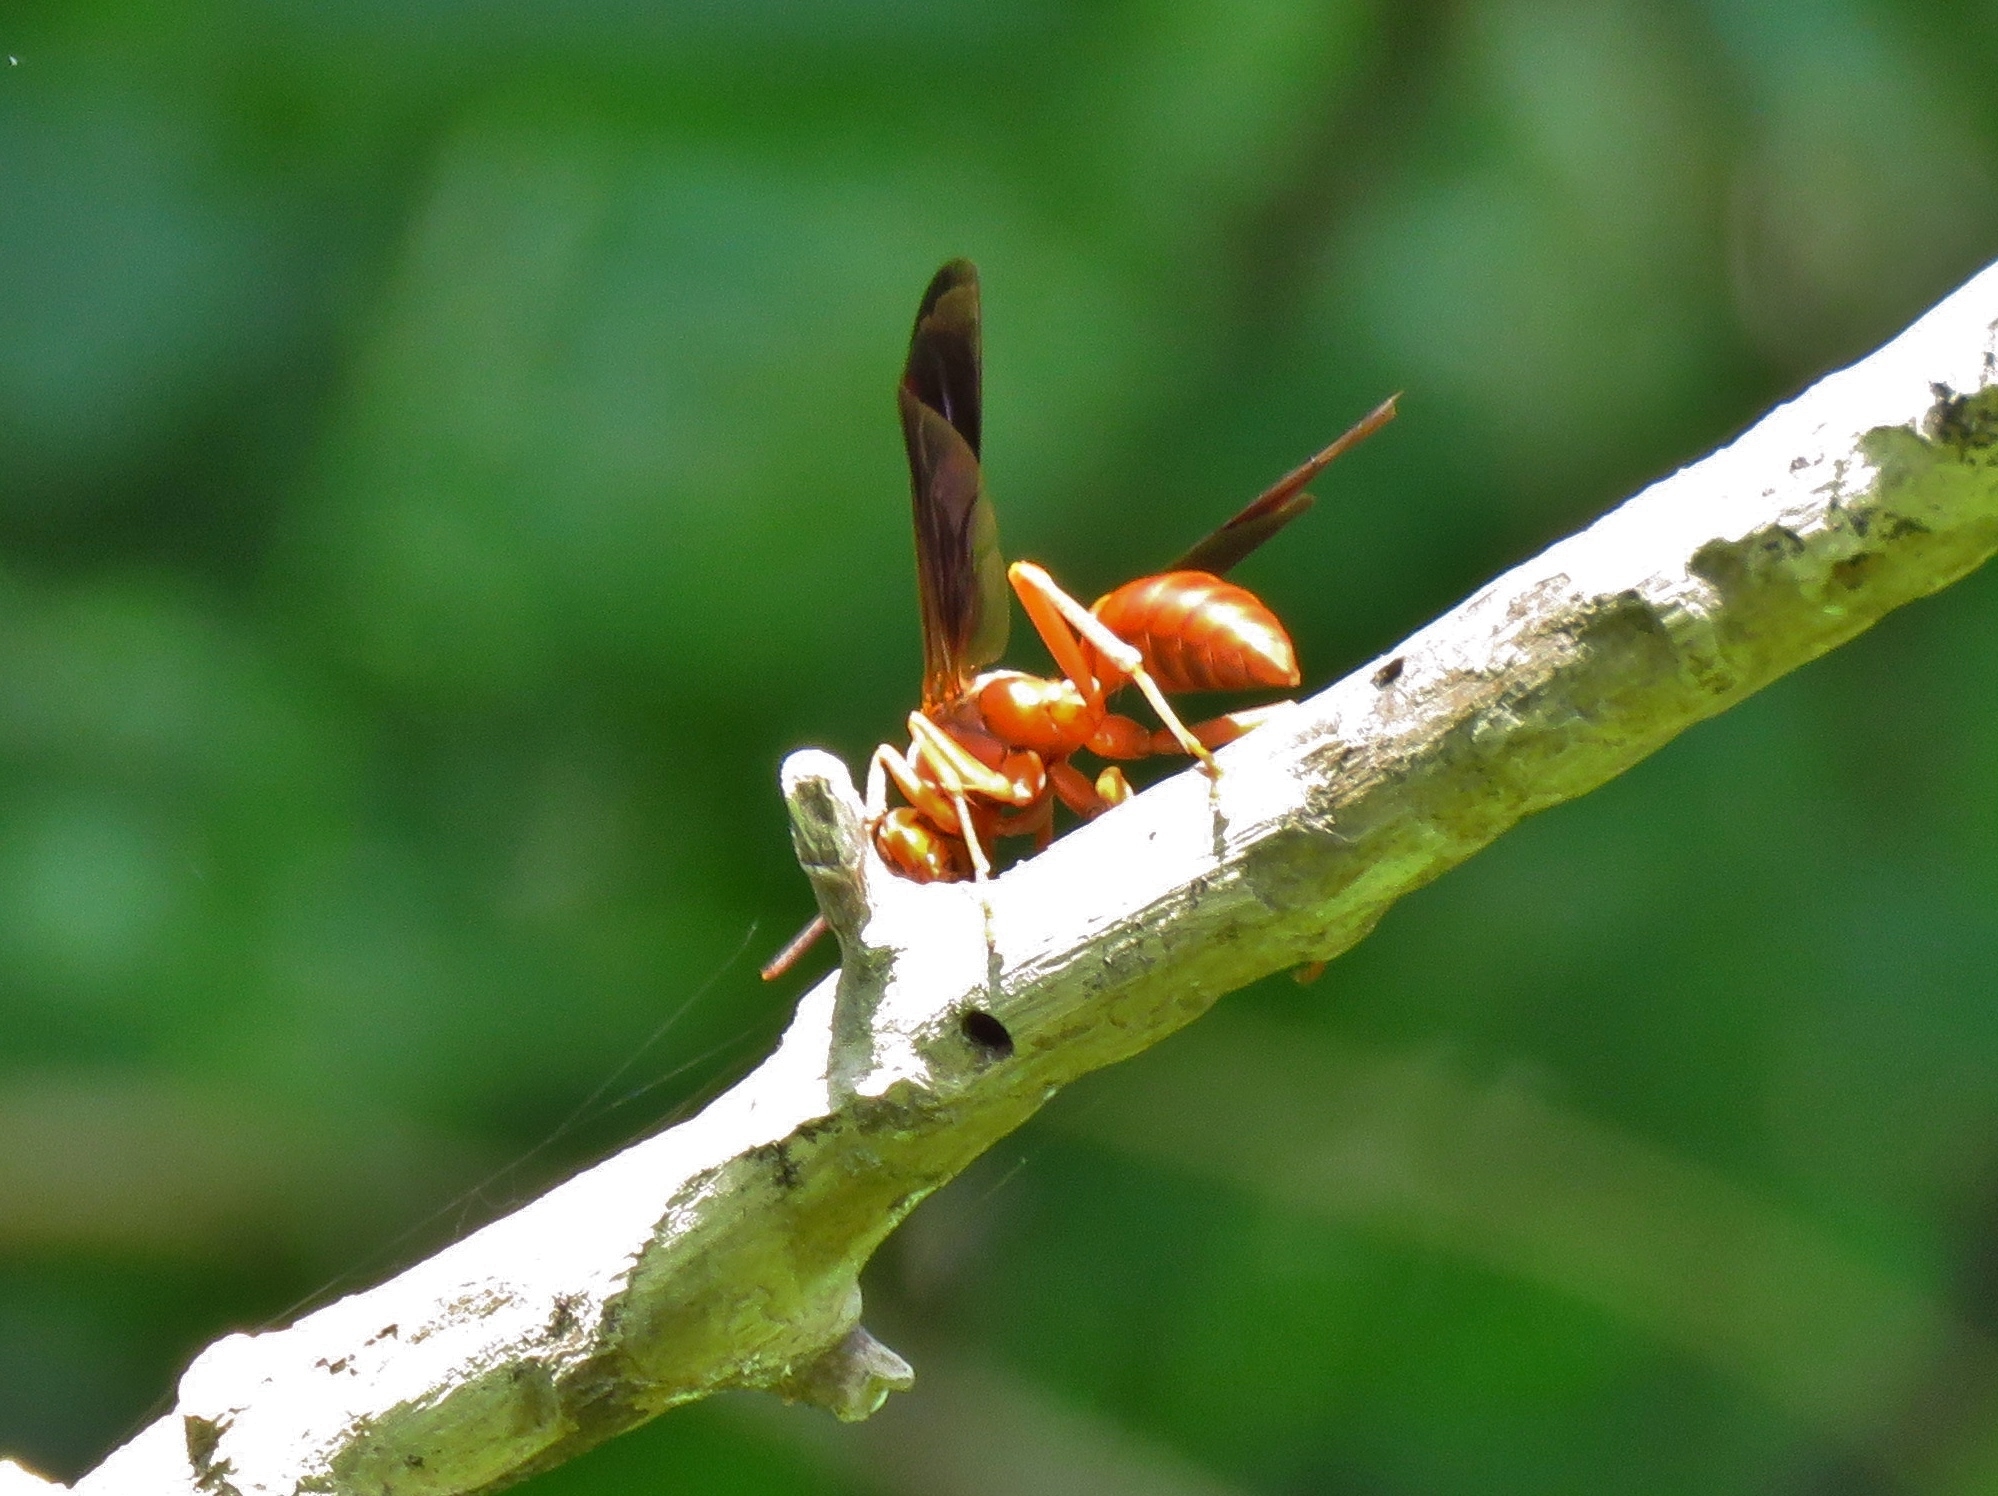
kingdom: Animalia
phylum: Arthropoda
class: Insecta
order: Hymenoptera
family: Eumenidae
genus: Polistes
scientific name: Polistes
